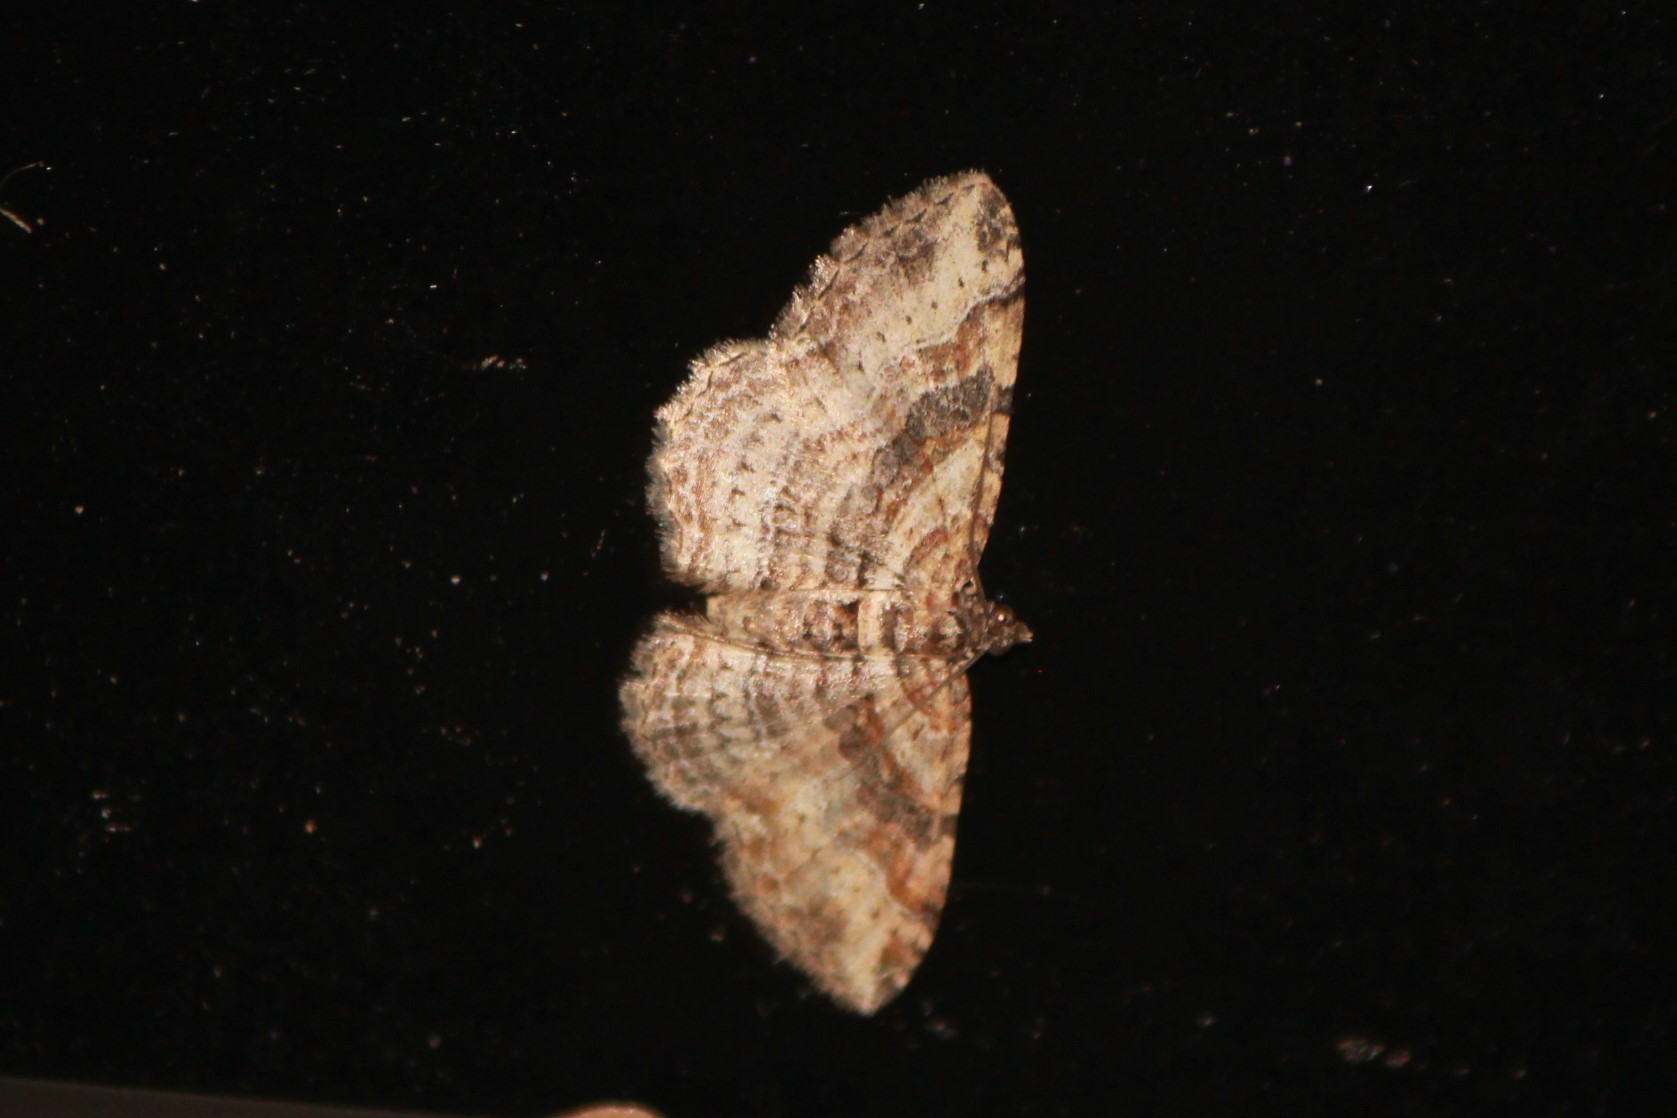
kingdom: Animalia
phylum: Arthropoda
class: Insecta
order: Lepidoptera
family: Geometridae
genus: Costaconvexa
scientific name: Costaconvexa centrostrigaria
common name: Bent-line carpet
